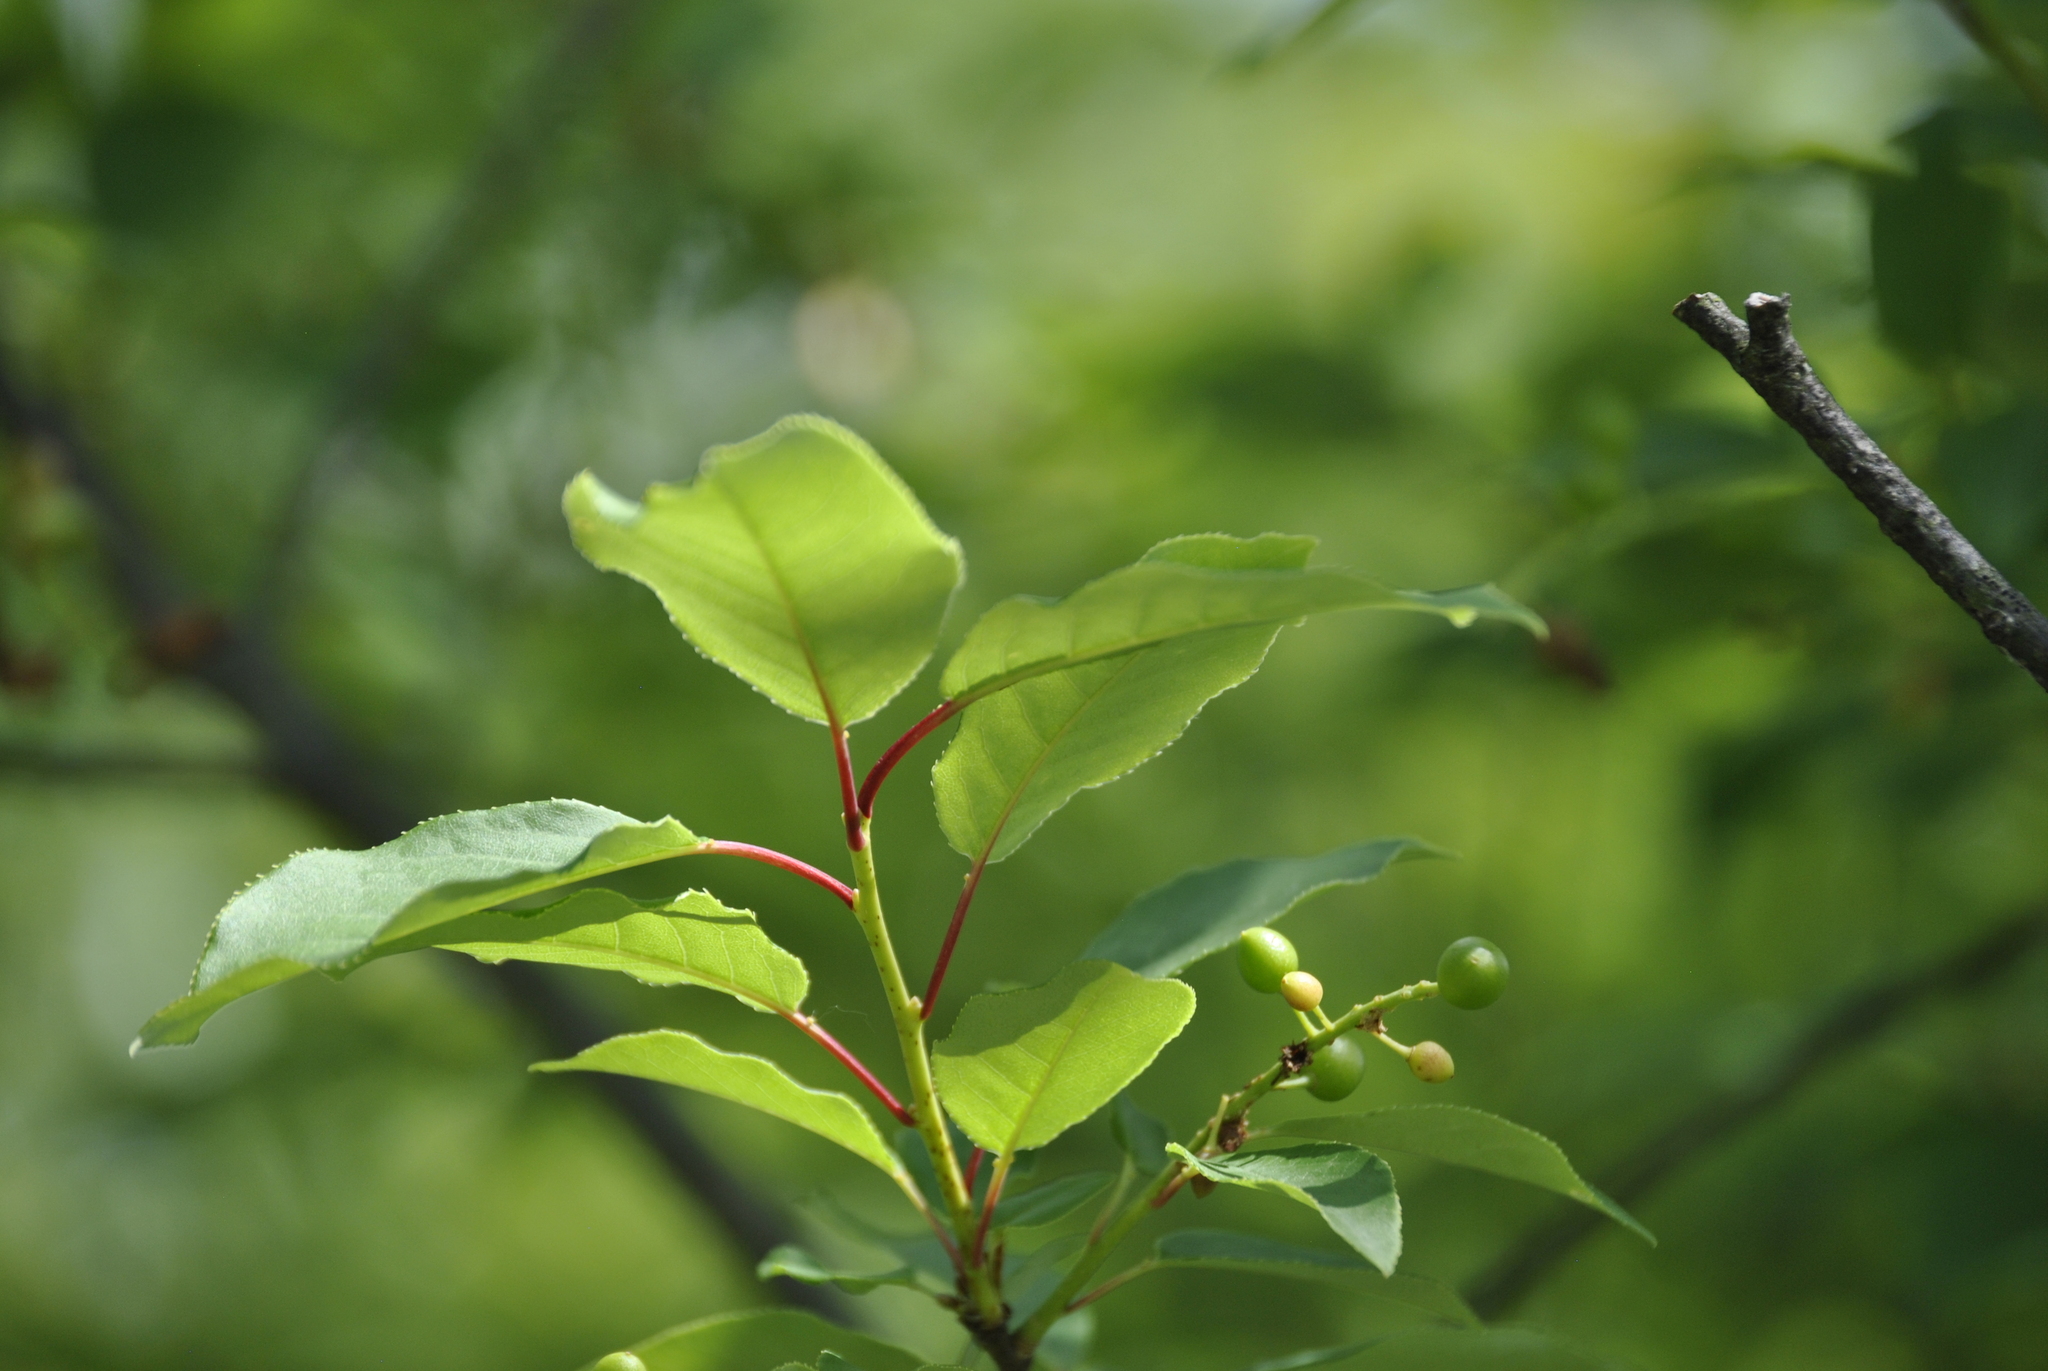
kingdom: Plantae
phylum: Tracheophyta
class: Magnoliopsida
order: Rosales
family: Rosaceae
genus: Prunus
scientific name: Prunus virginiana
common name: Chokecherry
